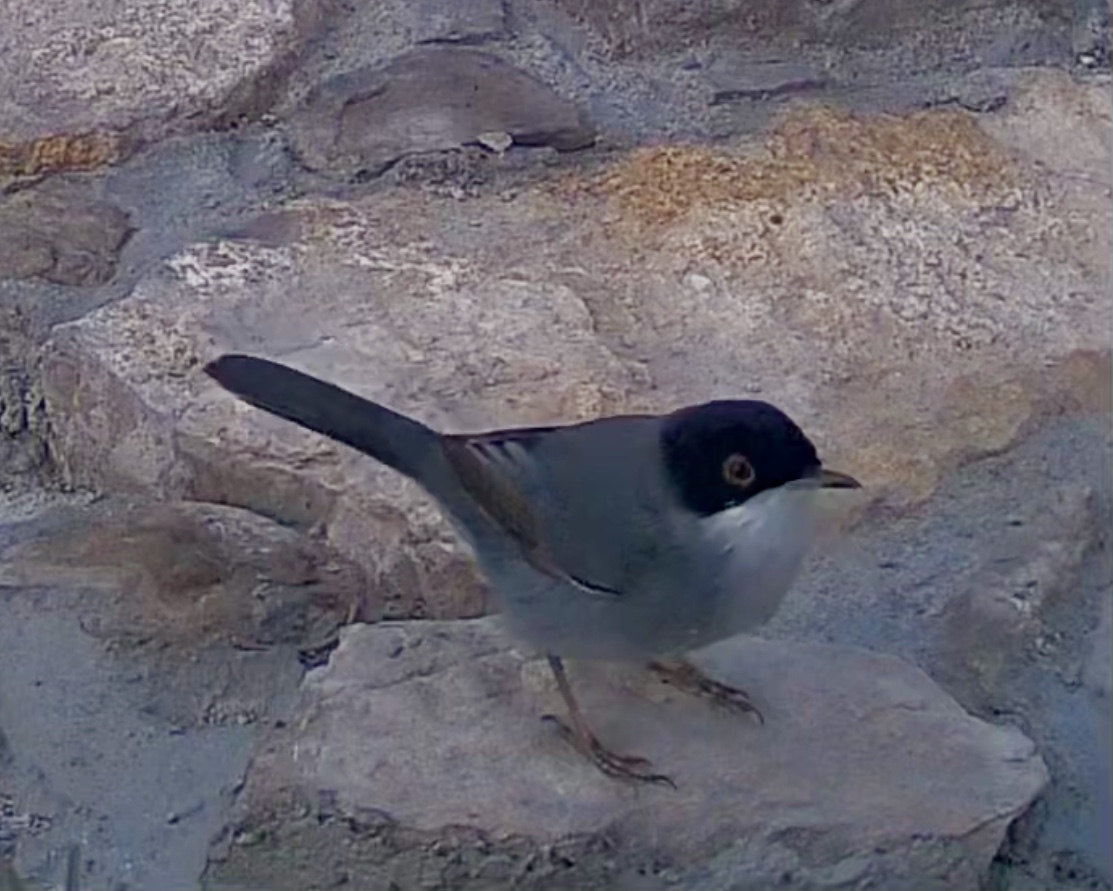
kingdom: Animalia
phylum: Chordata
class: Aves
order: Passeriformes
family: Sylviidae
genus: Curruca
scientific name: Curruca melanocephala
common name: Sardinian warbler
